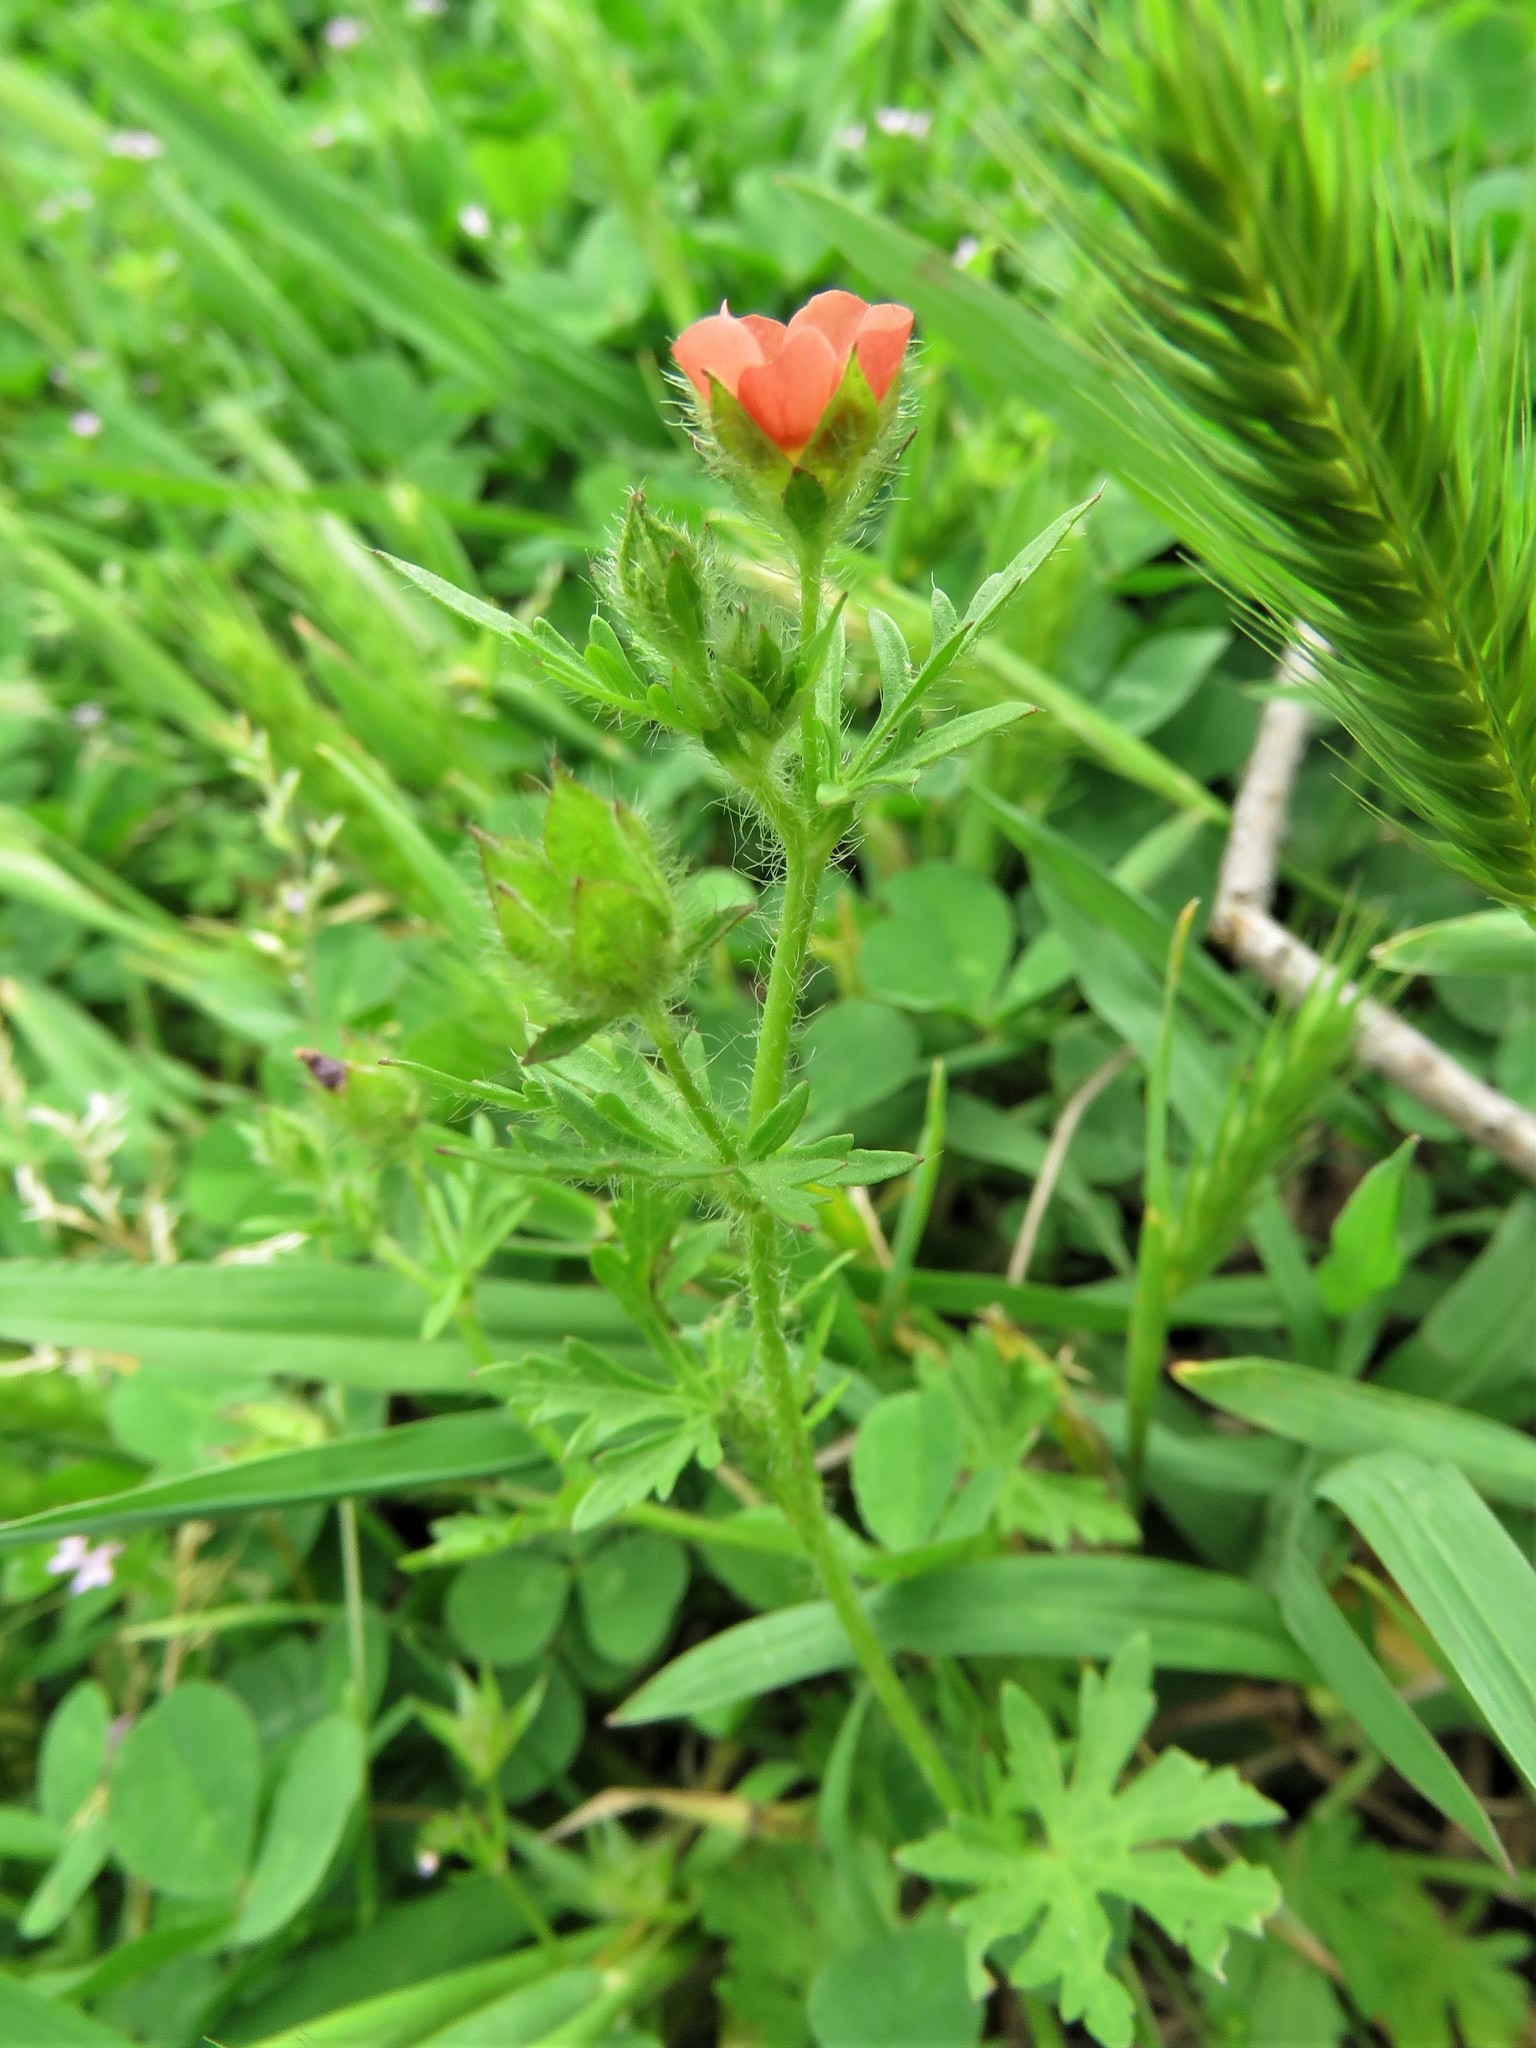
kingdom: Plantae
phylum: Tracheophyta
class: Magnoliopsida
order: Malvales
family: Malvaceae
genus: Modiola
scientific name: Modiola caroliniana
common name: Carolina bristlemallow
